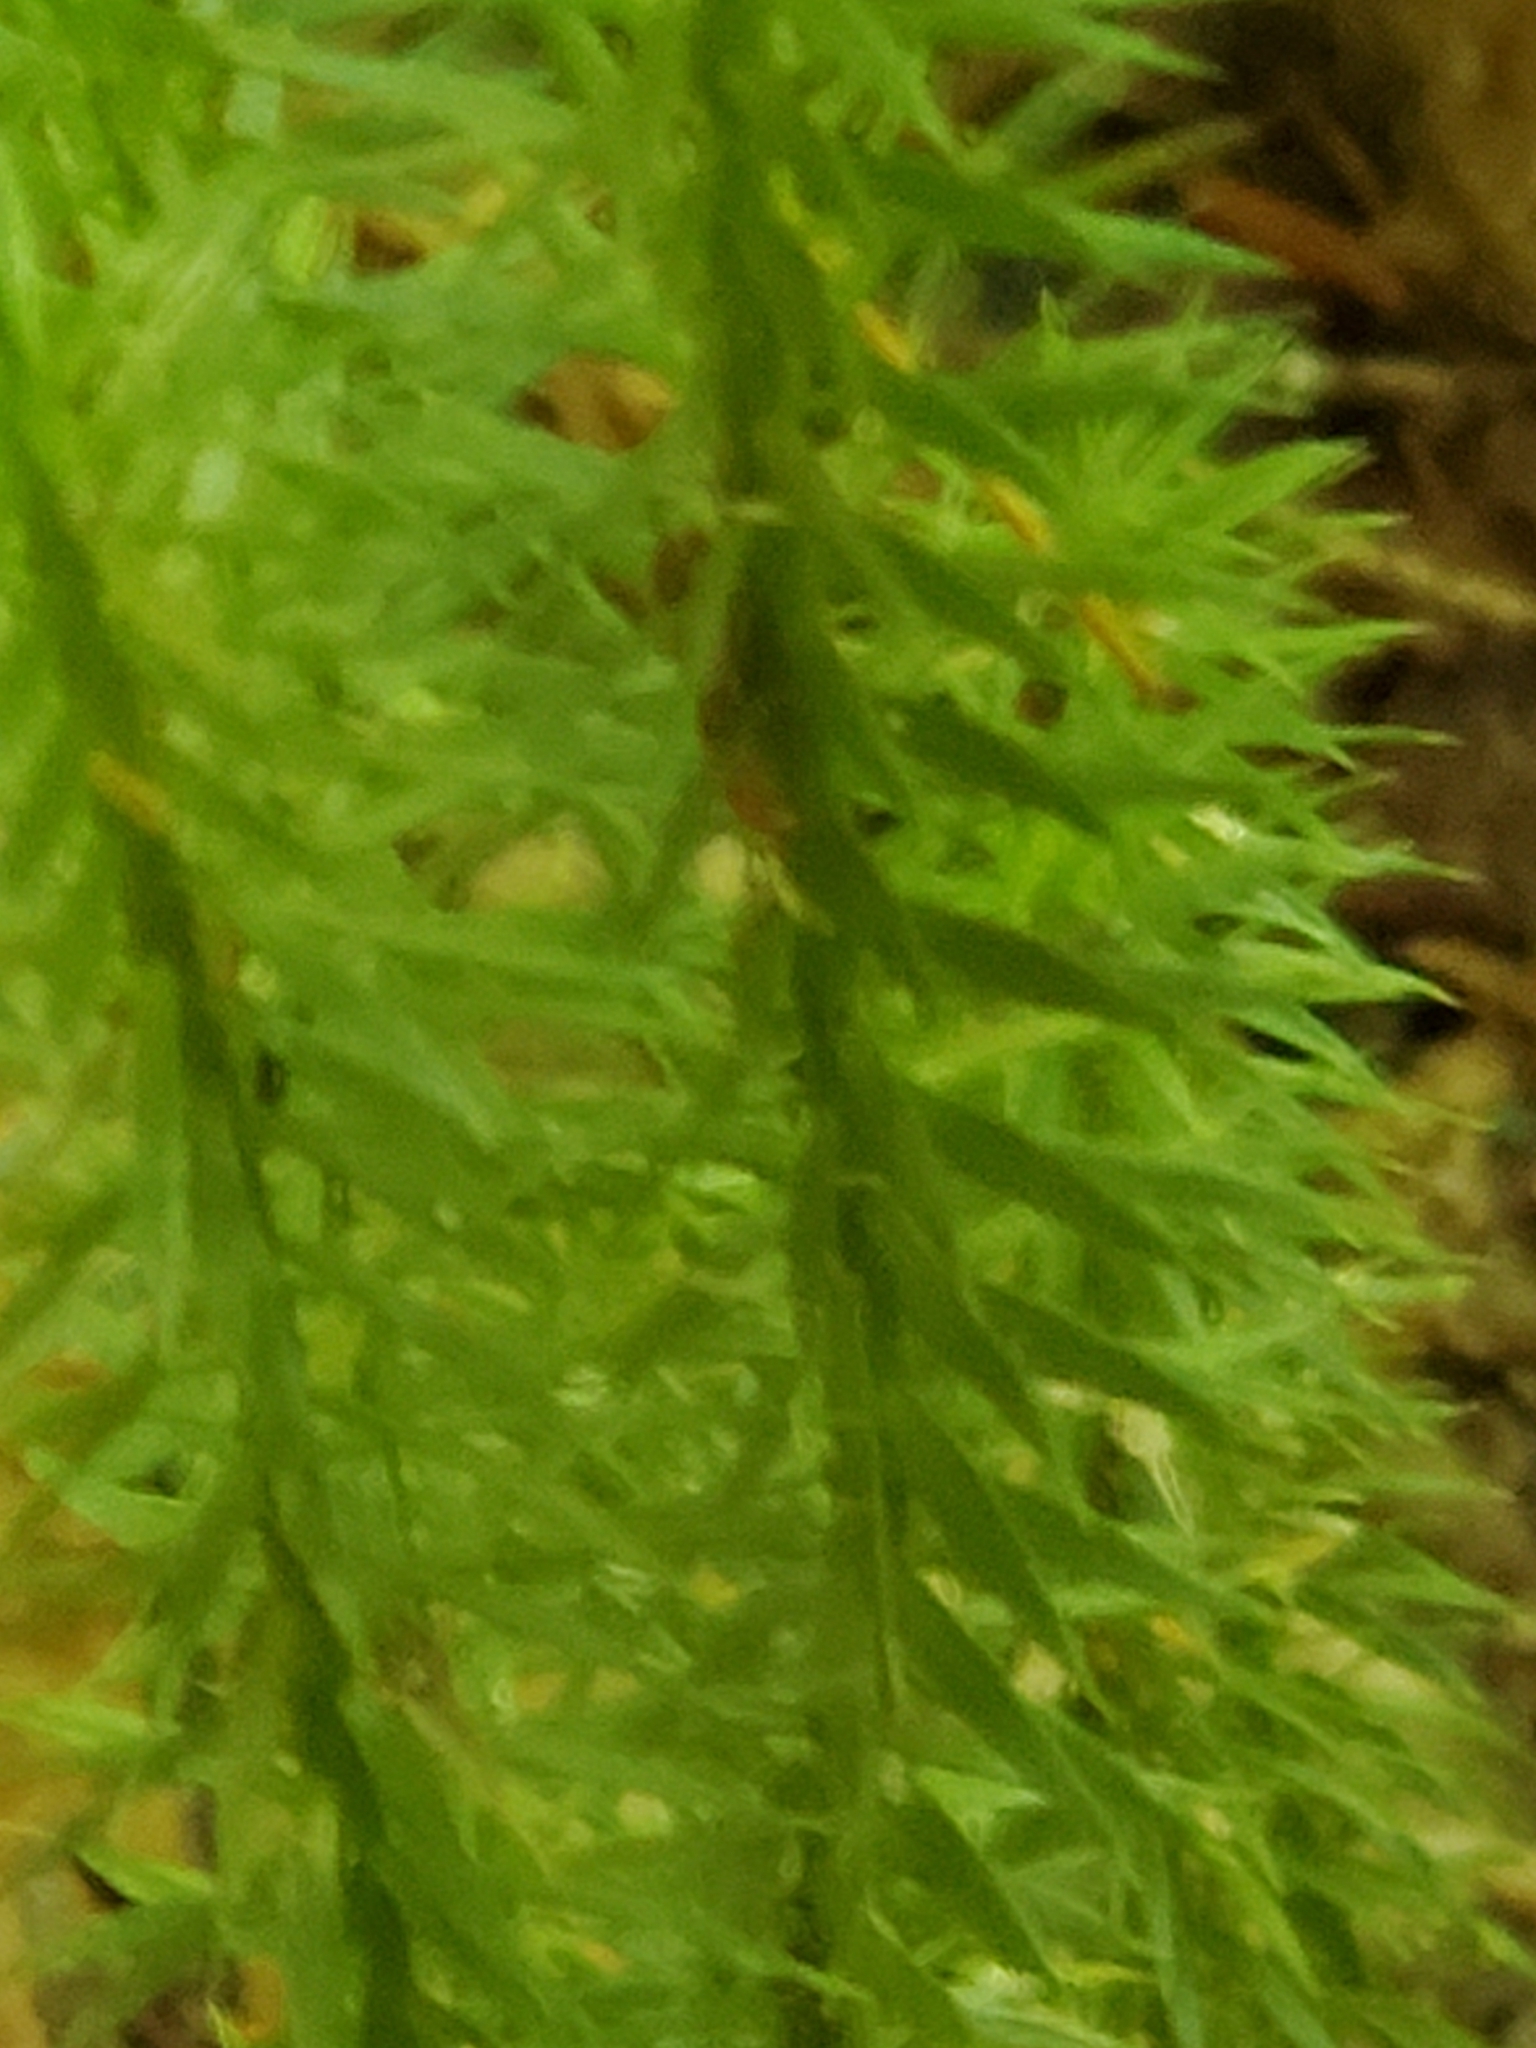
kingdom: Plantae
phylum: Tracheophyta
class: Lycopodiopsida
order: Lycopodiales
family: Lycopodiaceae
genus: Spinulum
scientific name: Spinulum annotinum
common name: Interrupted club-moss
